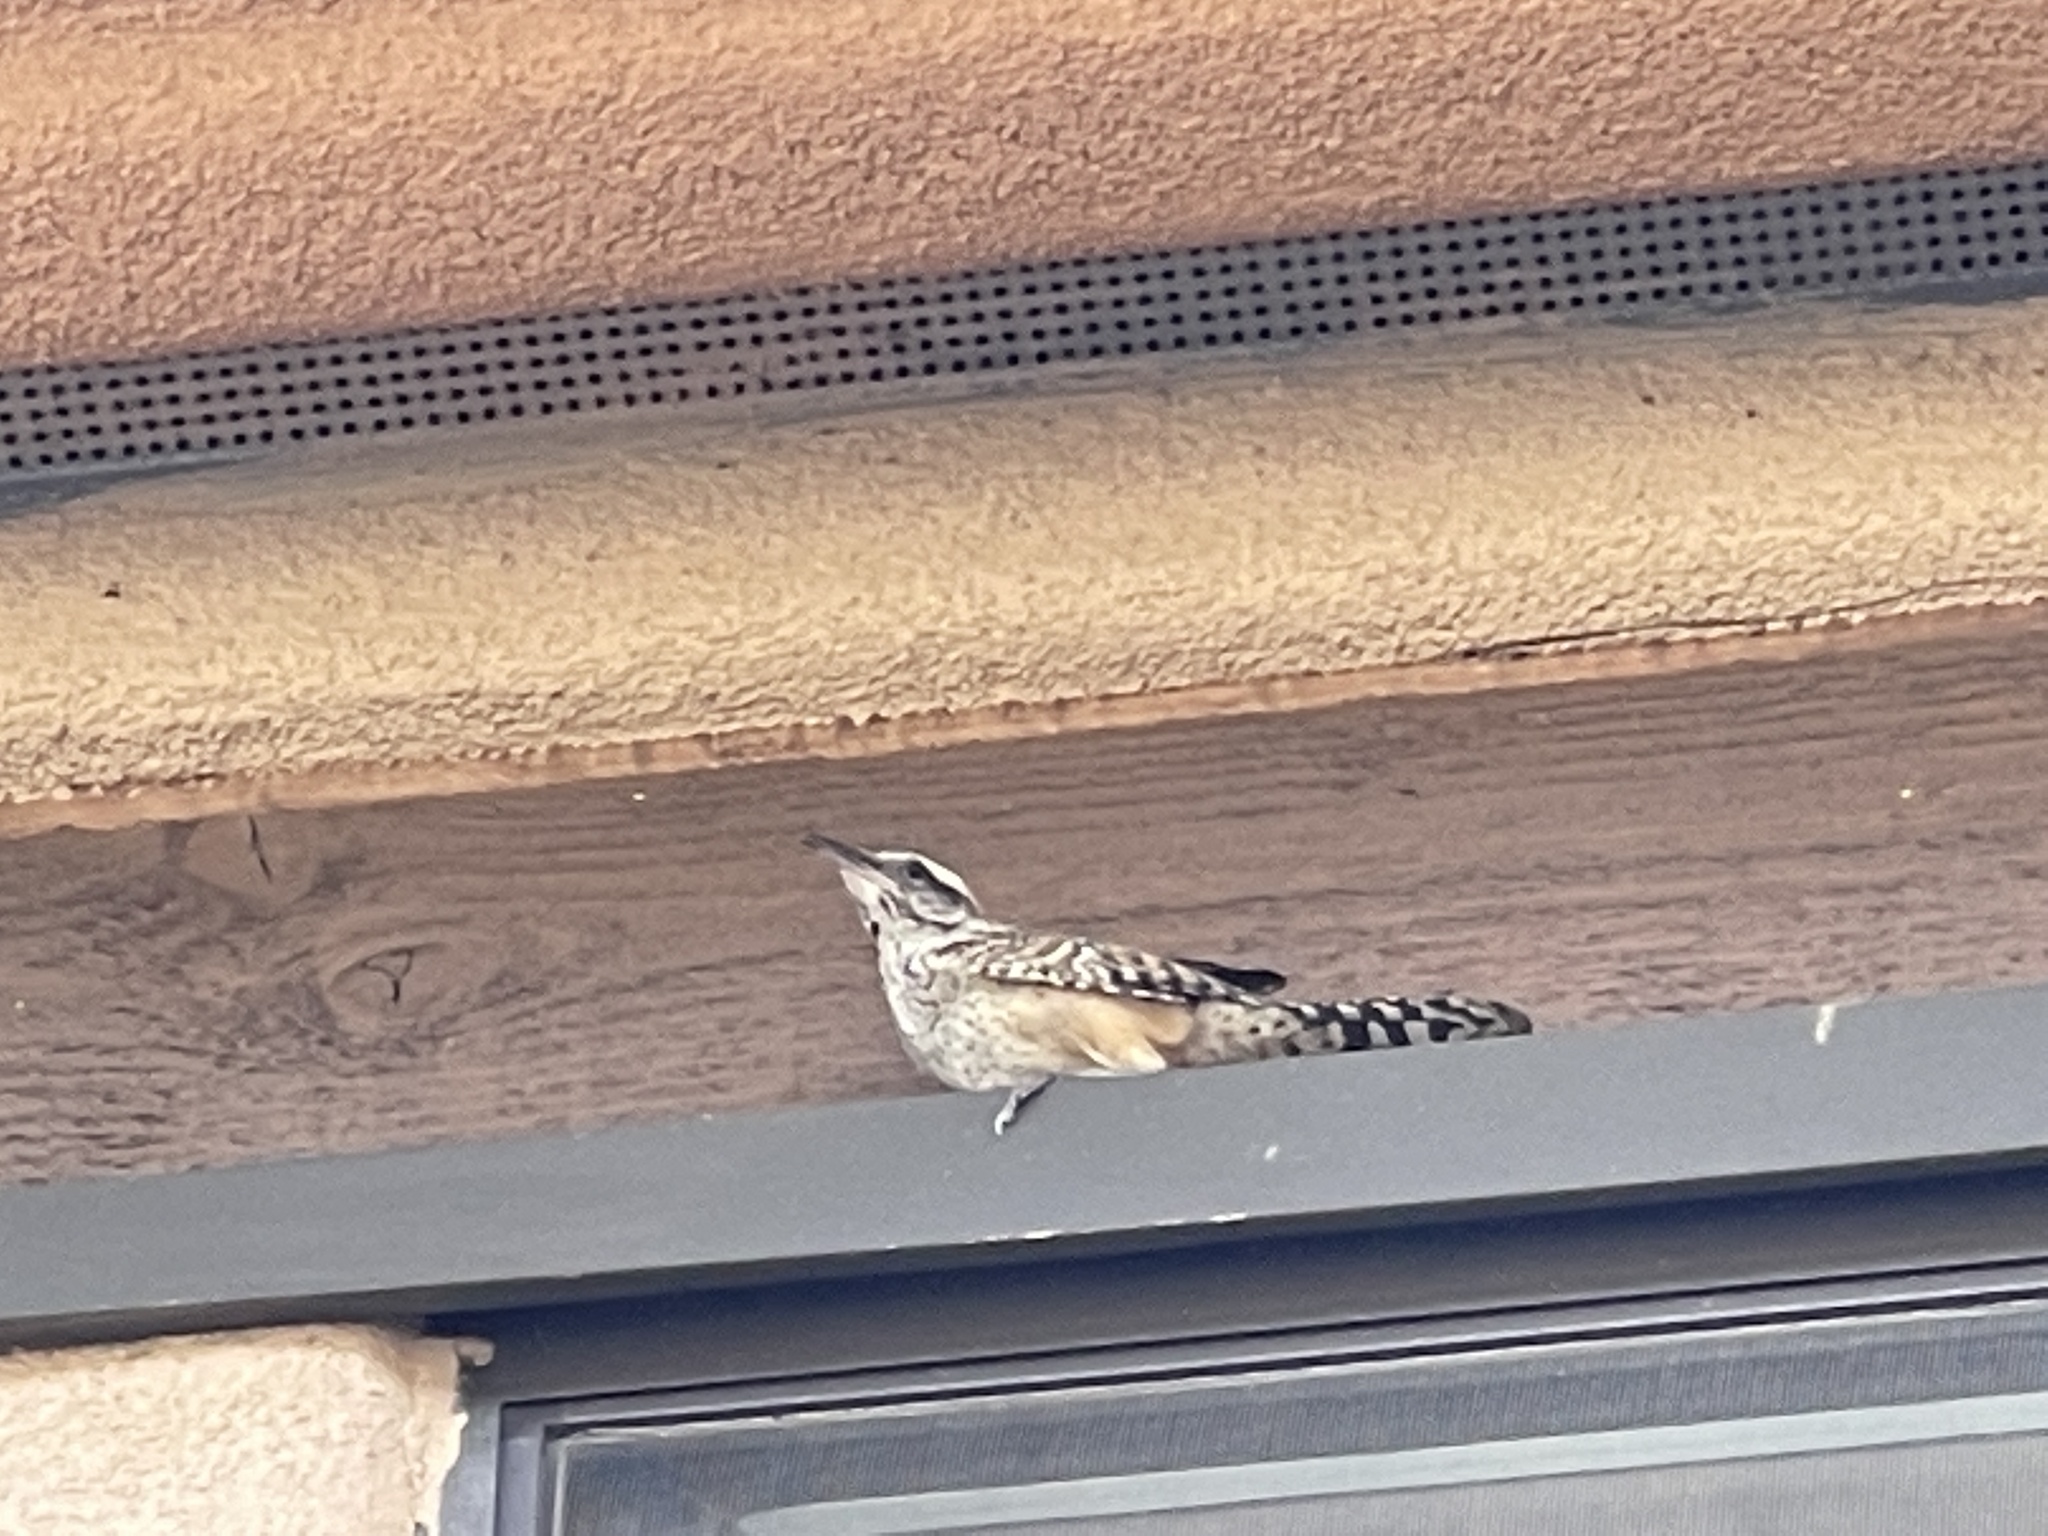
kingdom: Animalia
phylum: Chordata
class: Aves
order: Passeriformes
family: Troglodytidae
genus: Campylorhynchus
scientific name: Campylorhynchus brunneicapillus
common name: Cactus wren
